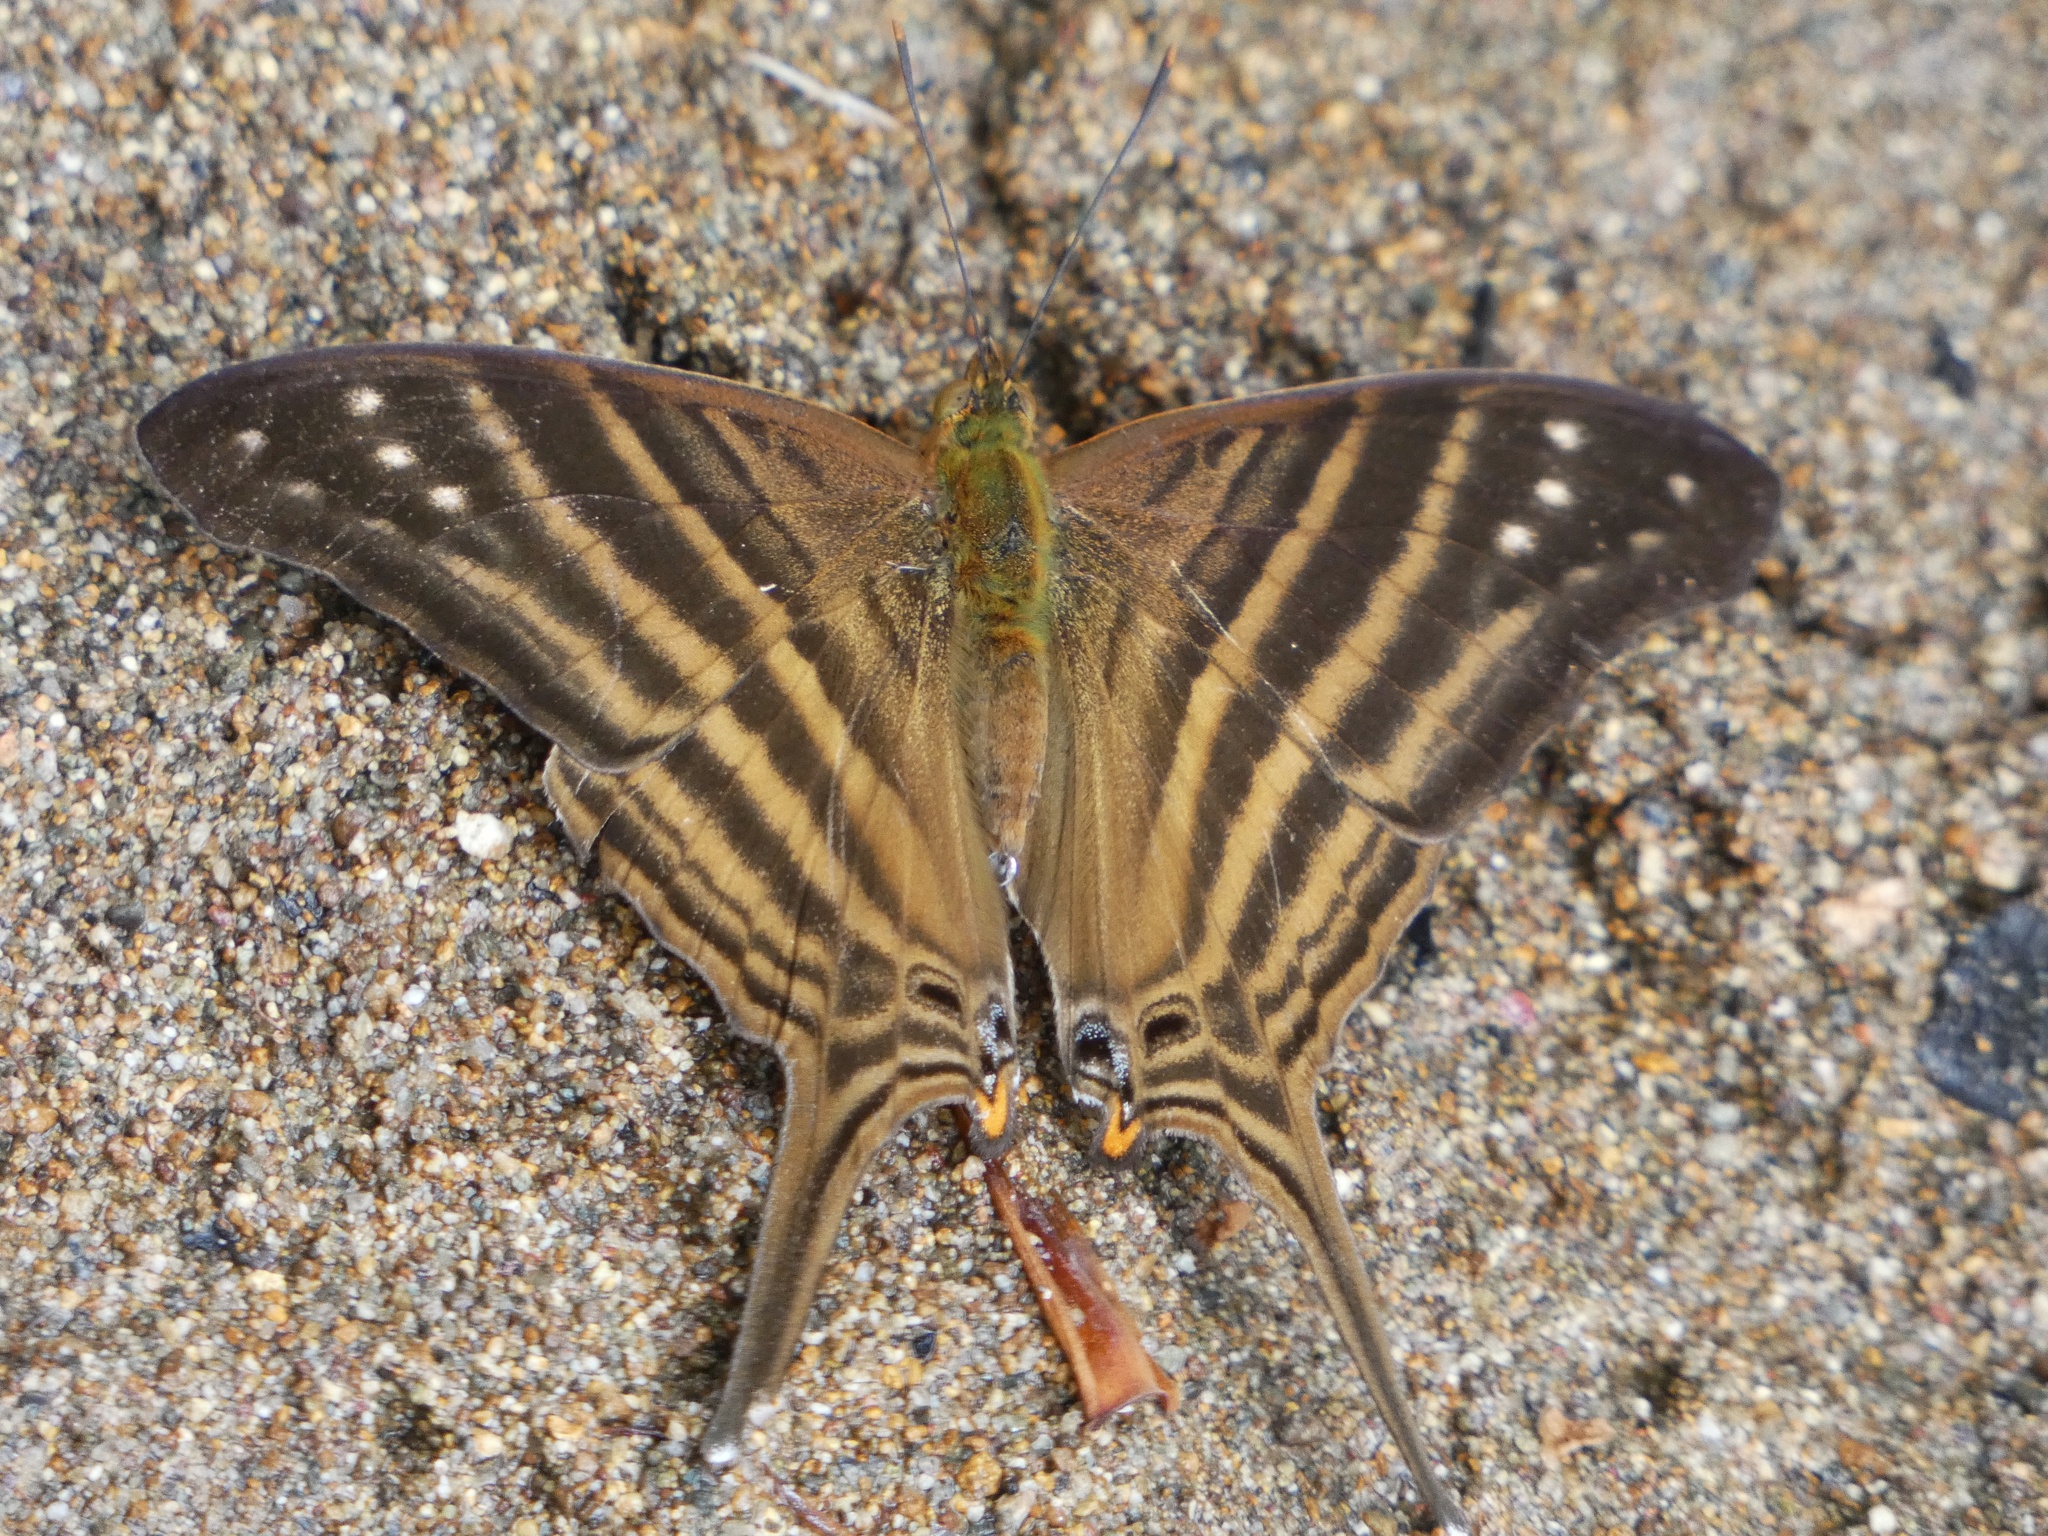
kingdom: Animalia
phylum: Arthropoda
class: Insecta
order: Lepidoptera
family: Nymphalidae
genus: Marpesia
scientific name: Marpesia chiron
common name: Many-banded daggerwing
